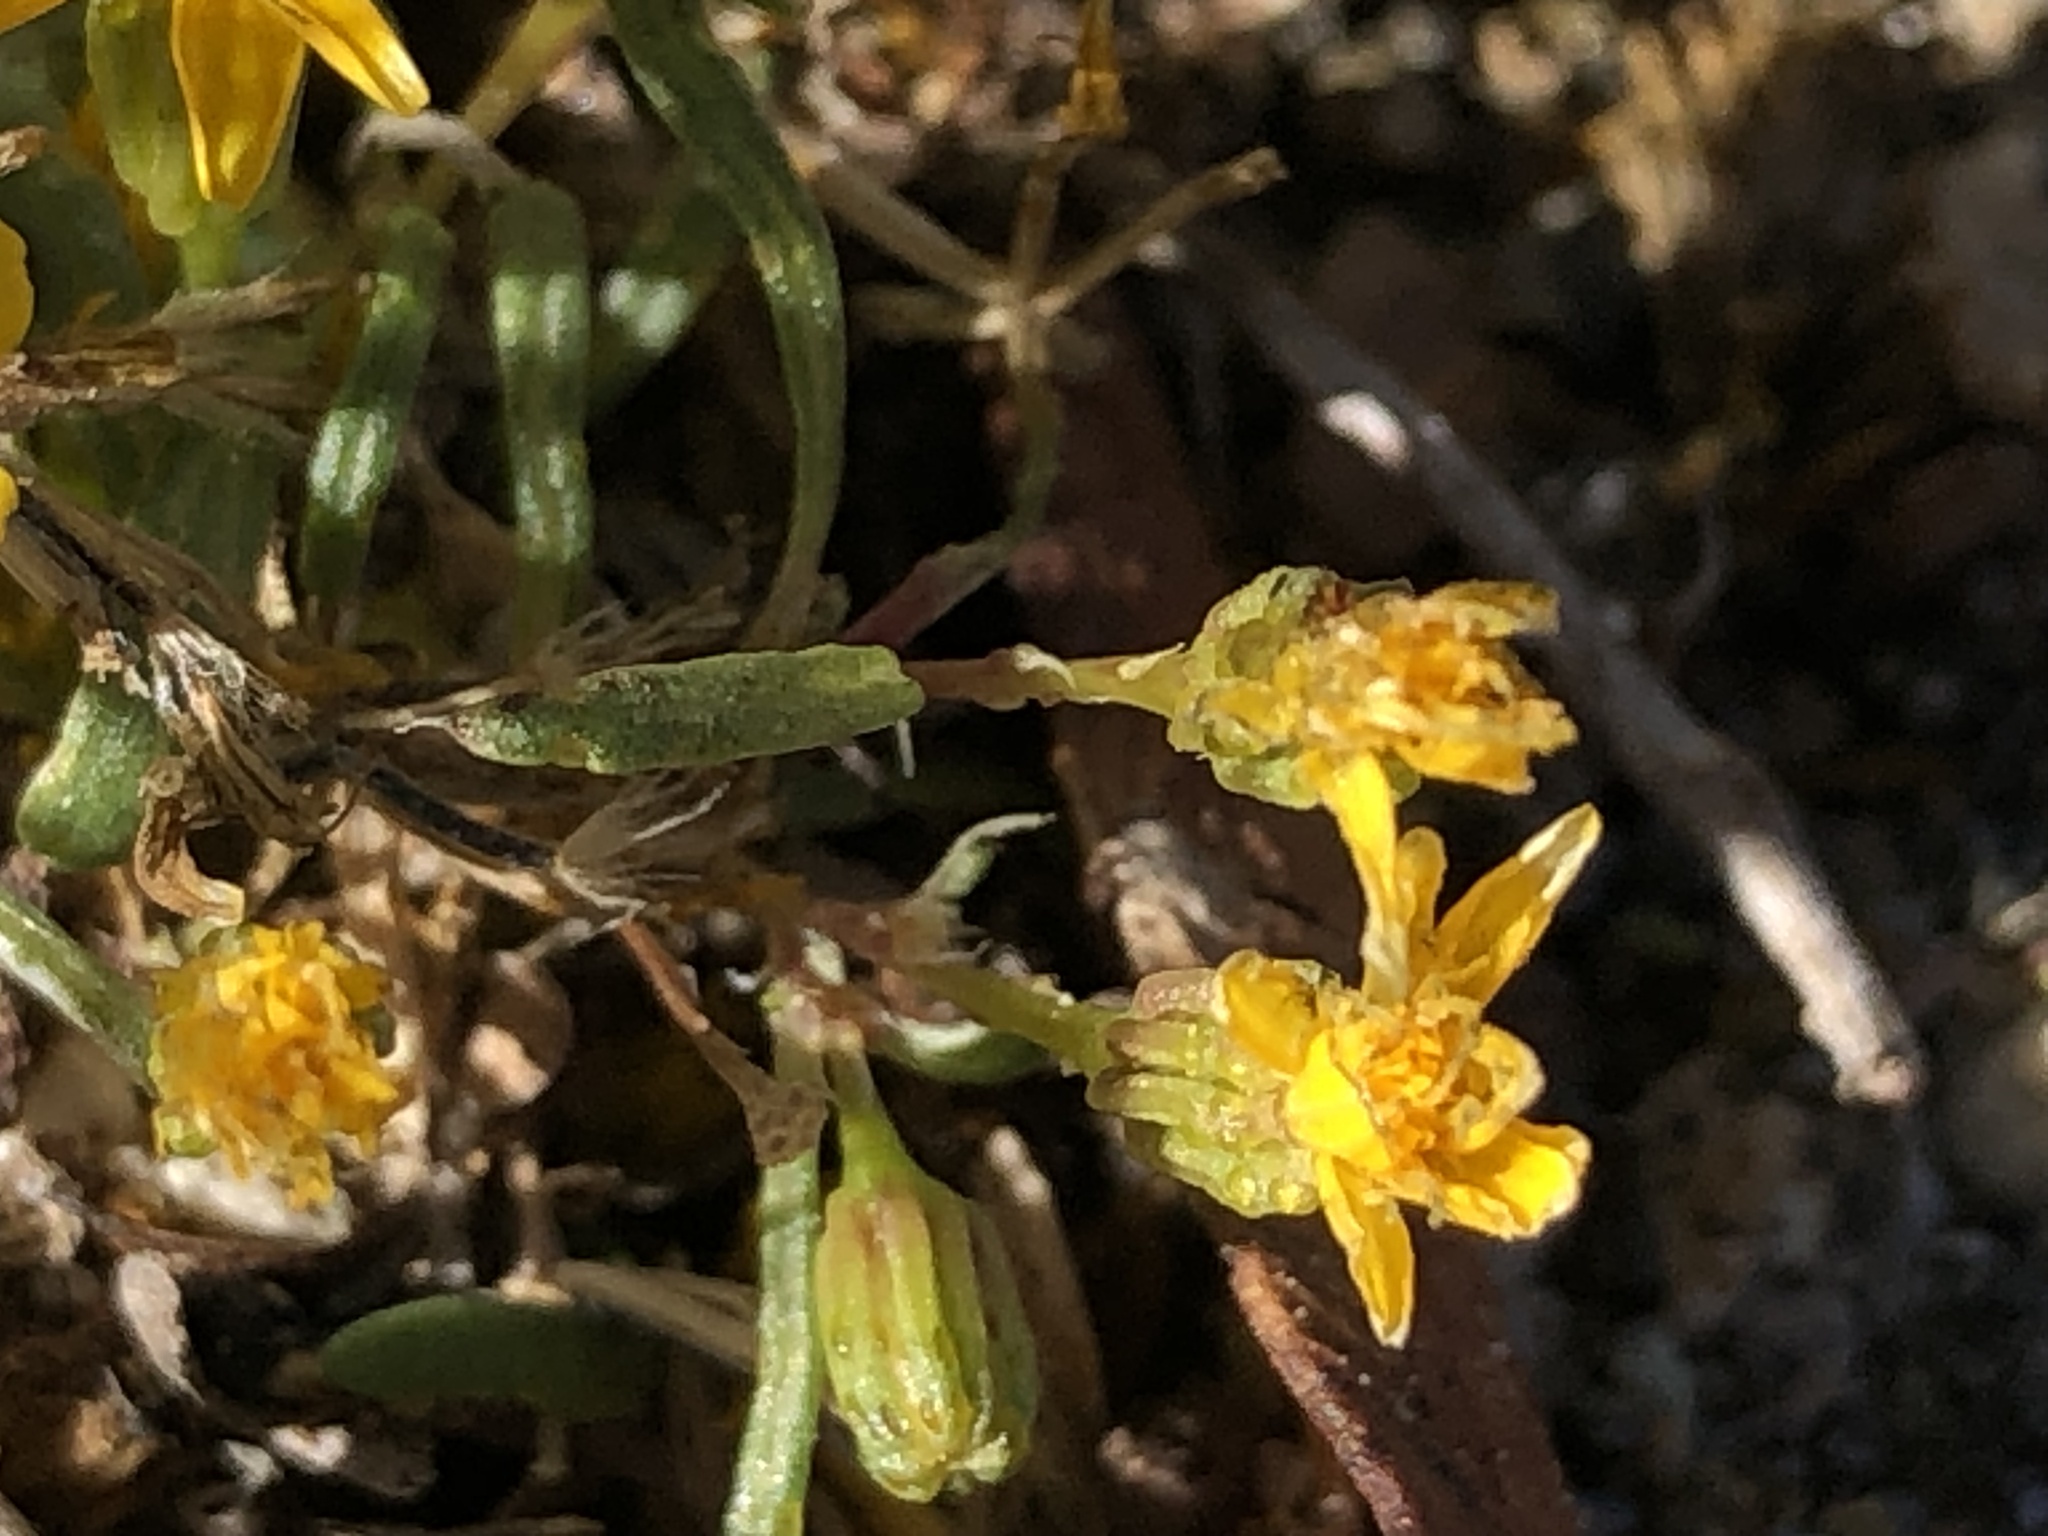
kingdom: Plantae
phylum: Tracheophyta
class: Magnoliopsida
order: Asterales
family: Asteraceae
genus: Pectis
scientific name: Pectis papposa
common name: Many-bristle chinchweed
